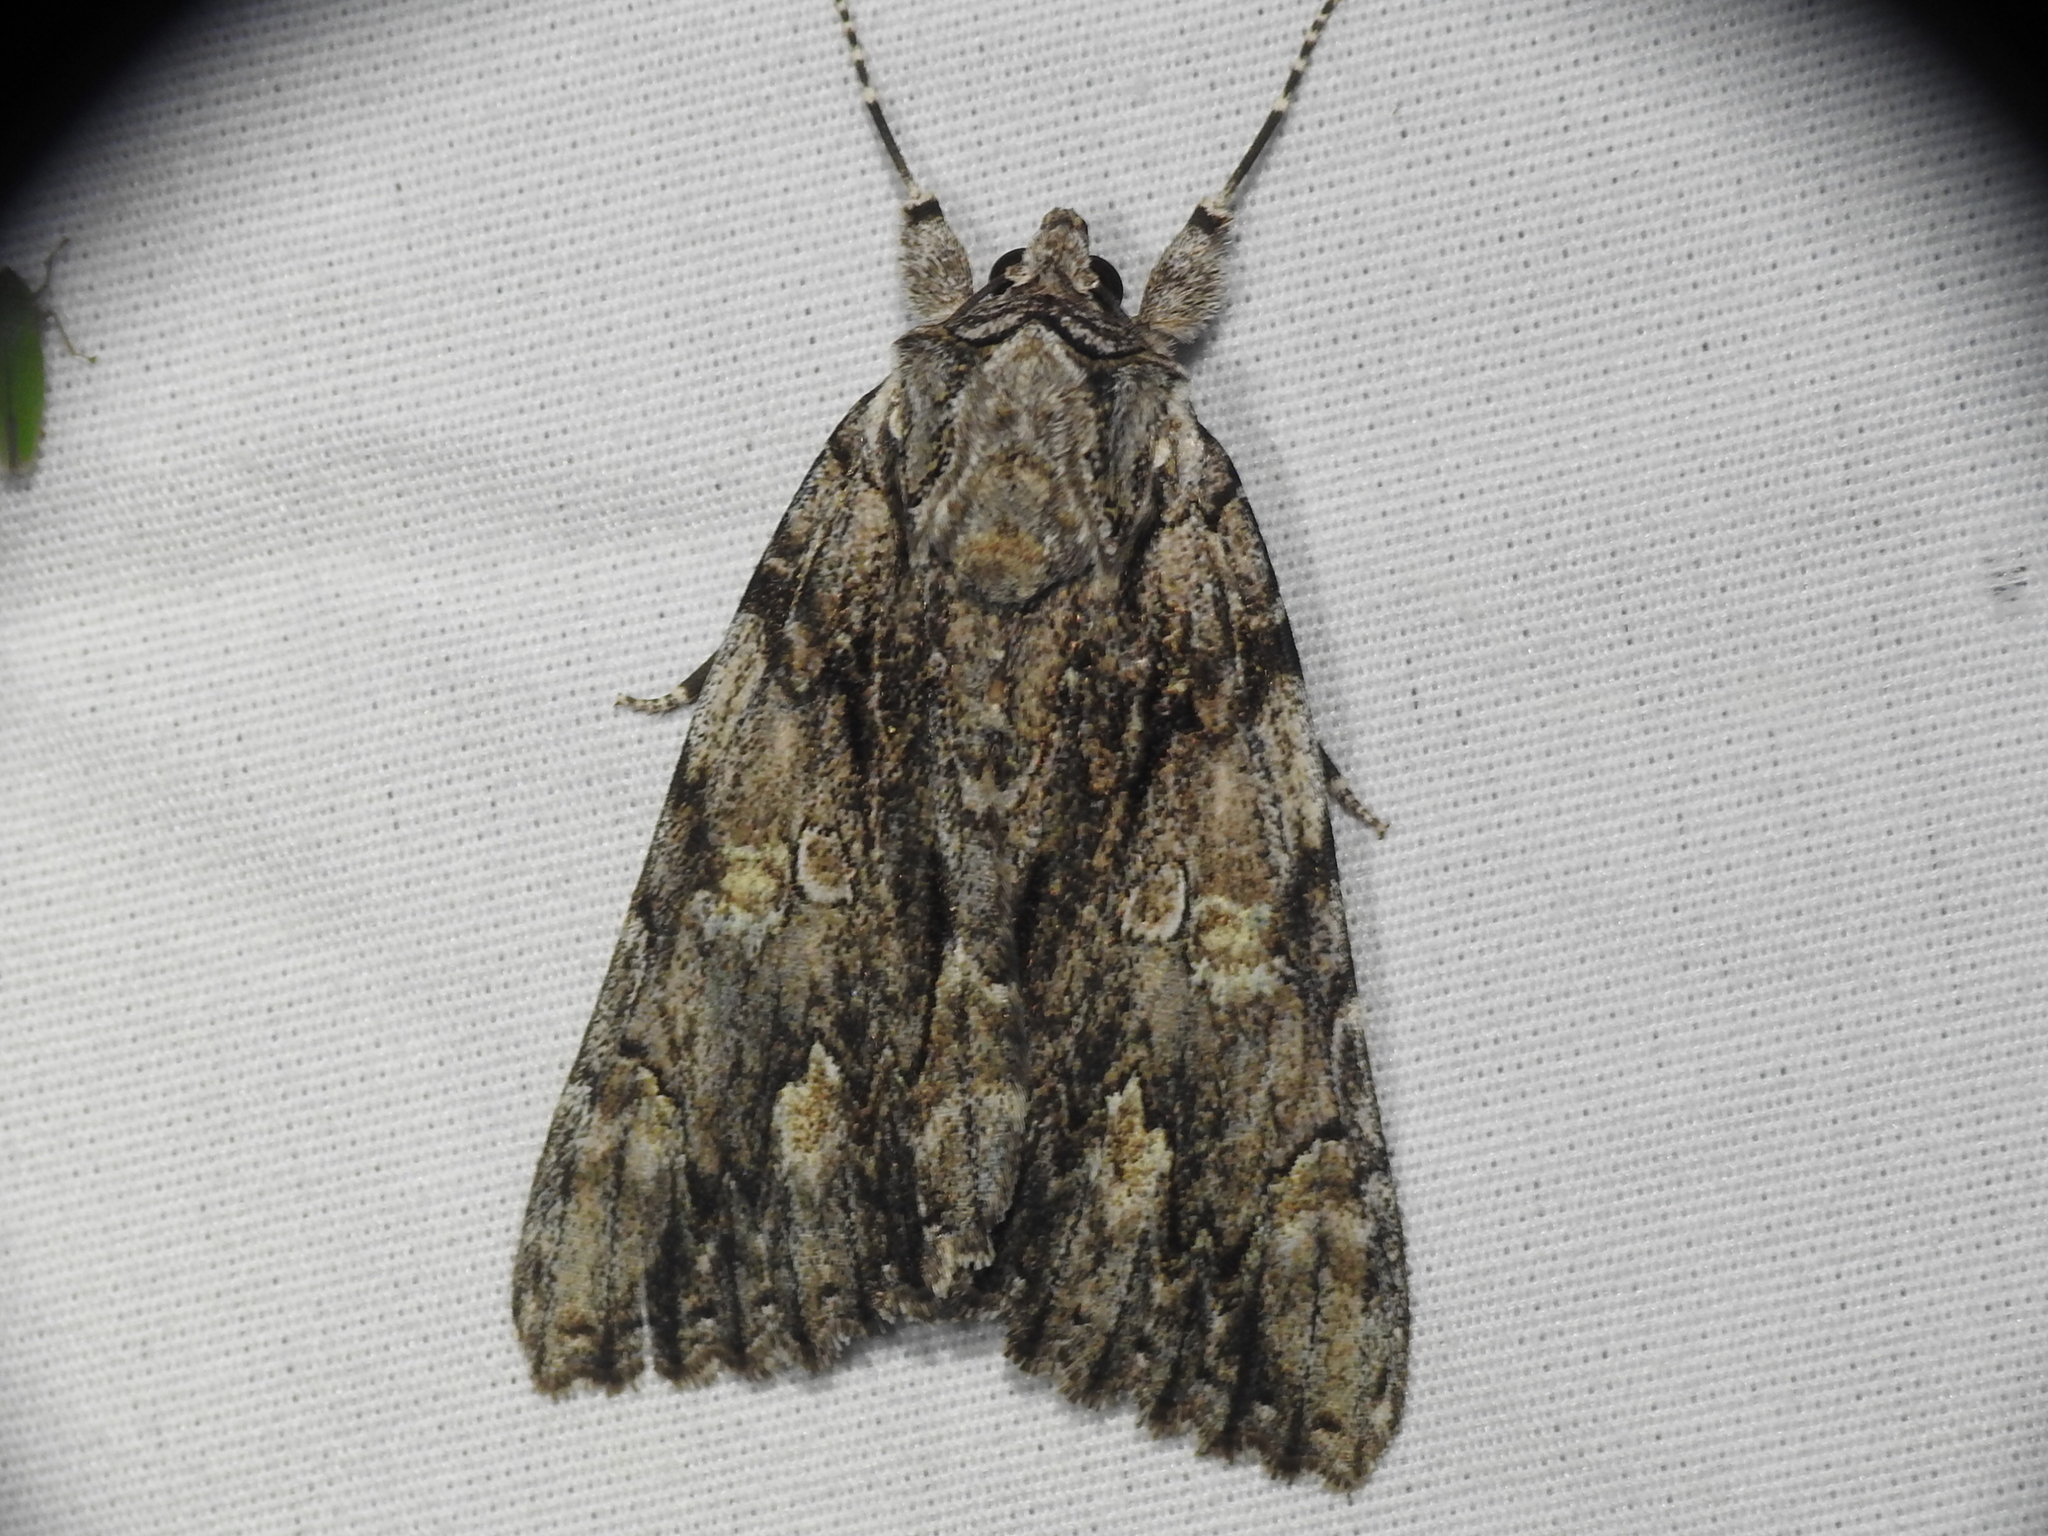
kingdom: Animalia
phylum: Arthropoda
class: Insecta
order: Lepidoptera
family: Erebidae
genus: Catocala
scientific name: Catocala coccinata
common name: Scarlet underwing
